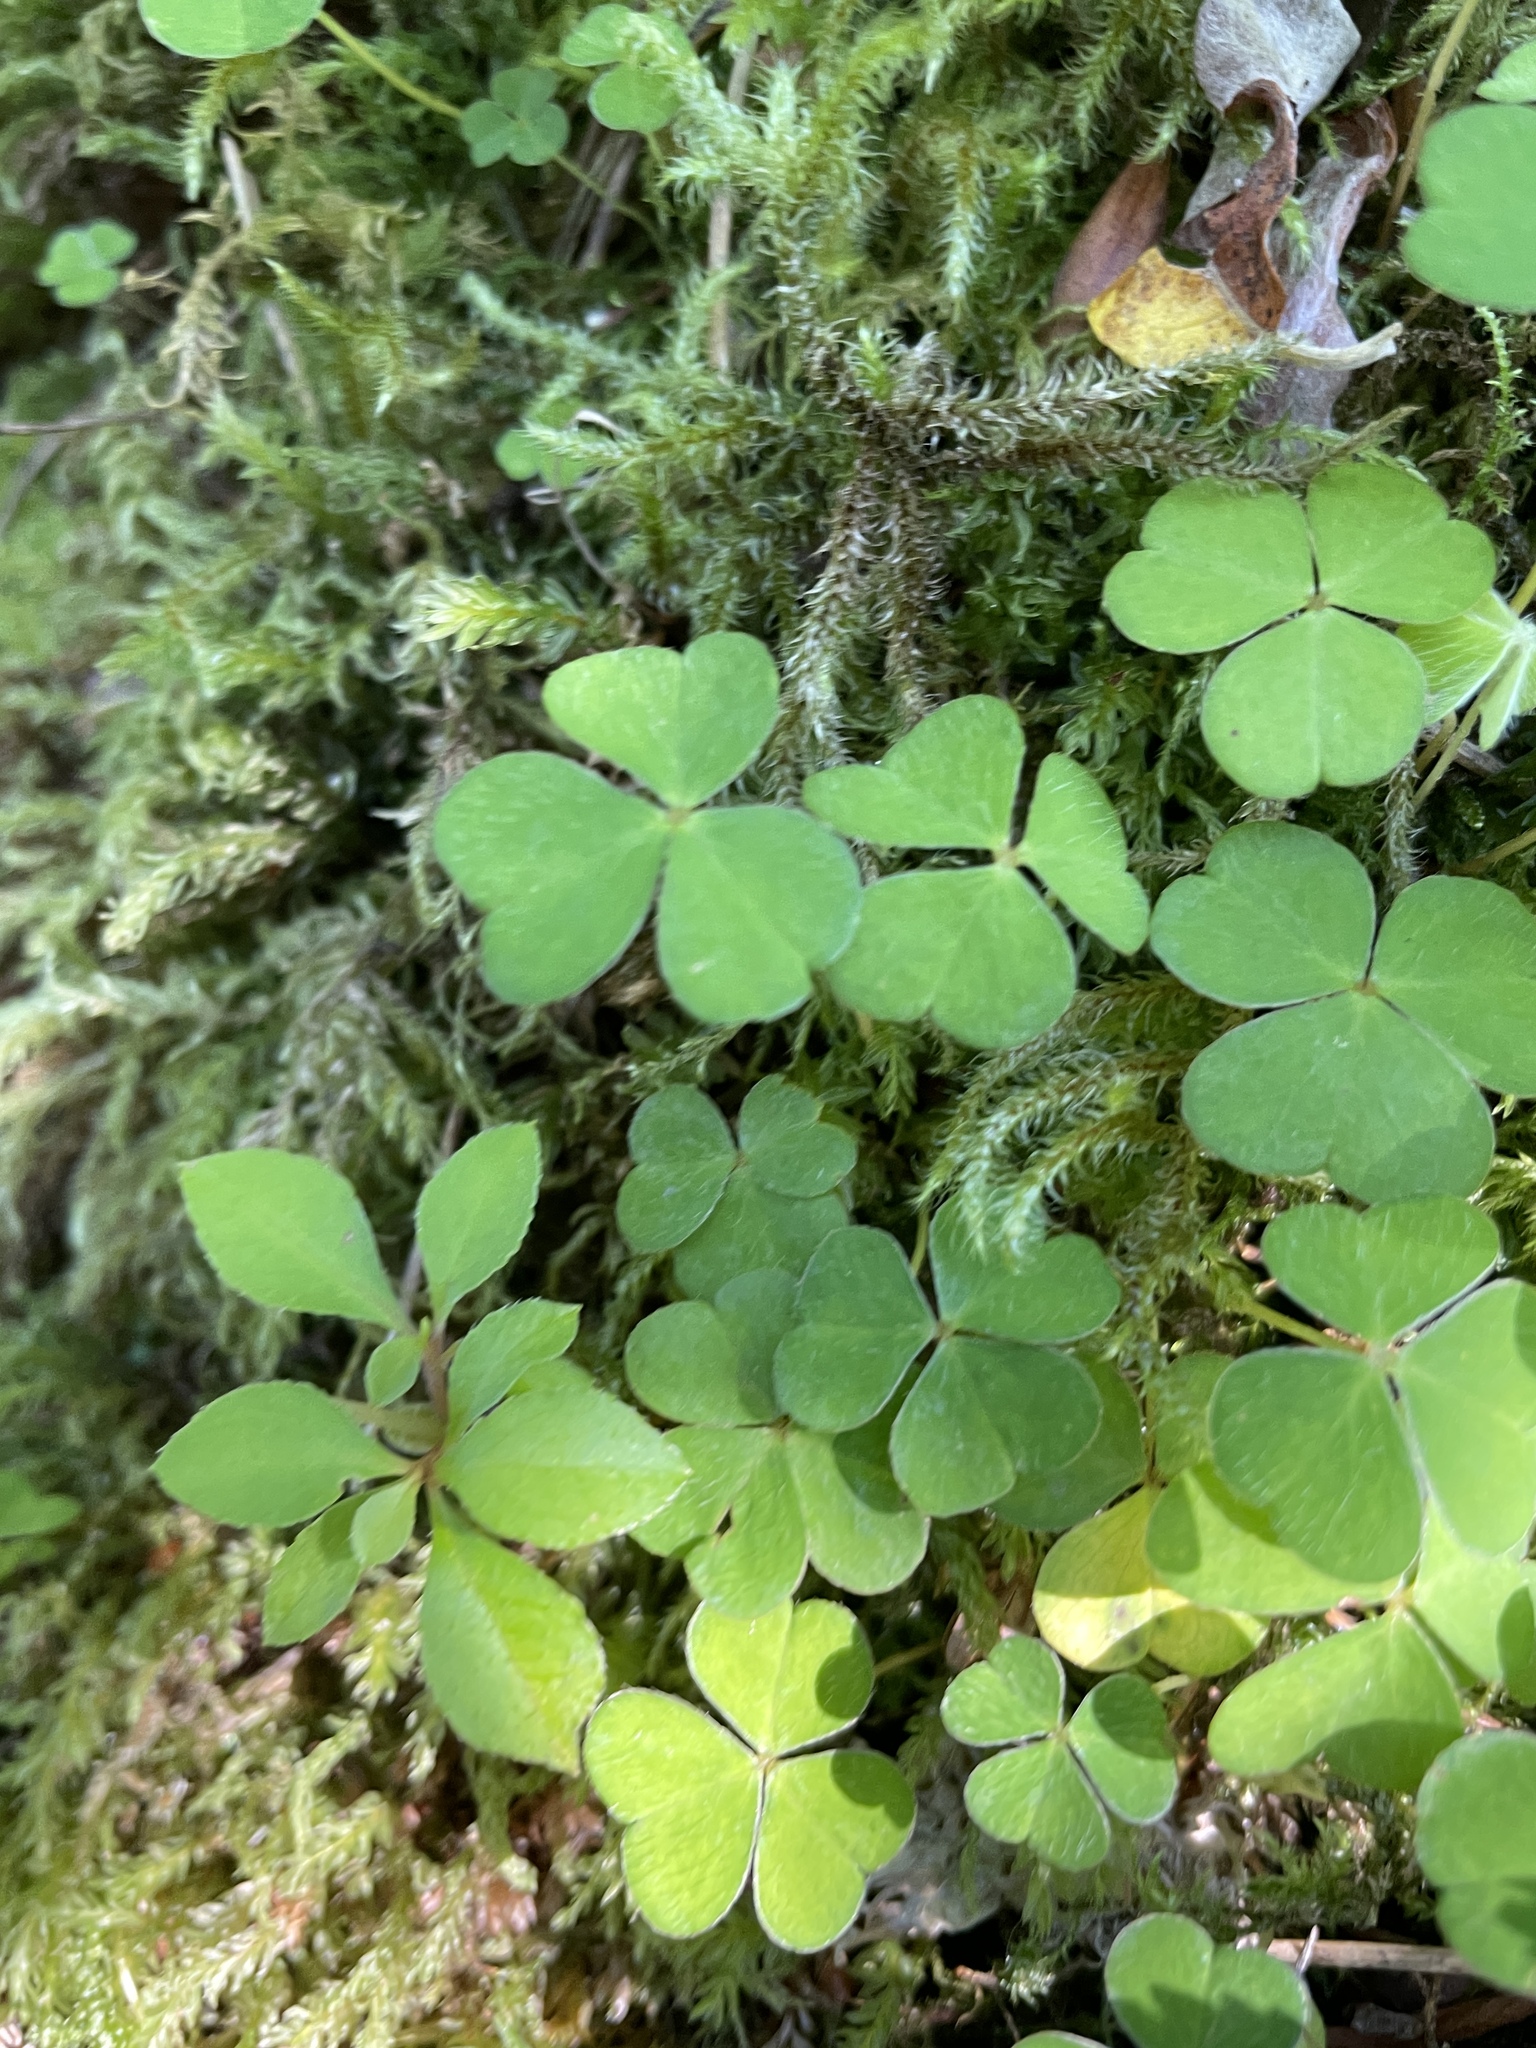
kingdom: Plantae
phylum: Tracheophyta
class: Magnoliopsida
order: Oxalidales
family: Oxalidaceae
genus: Oxalis
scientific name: Oxalis acetosella
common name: Wood-sorrel
